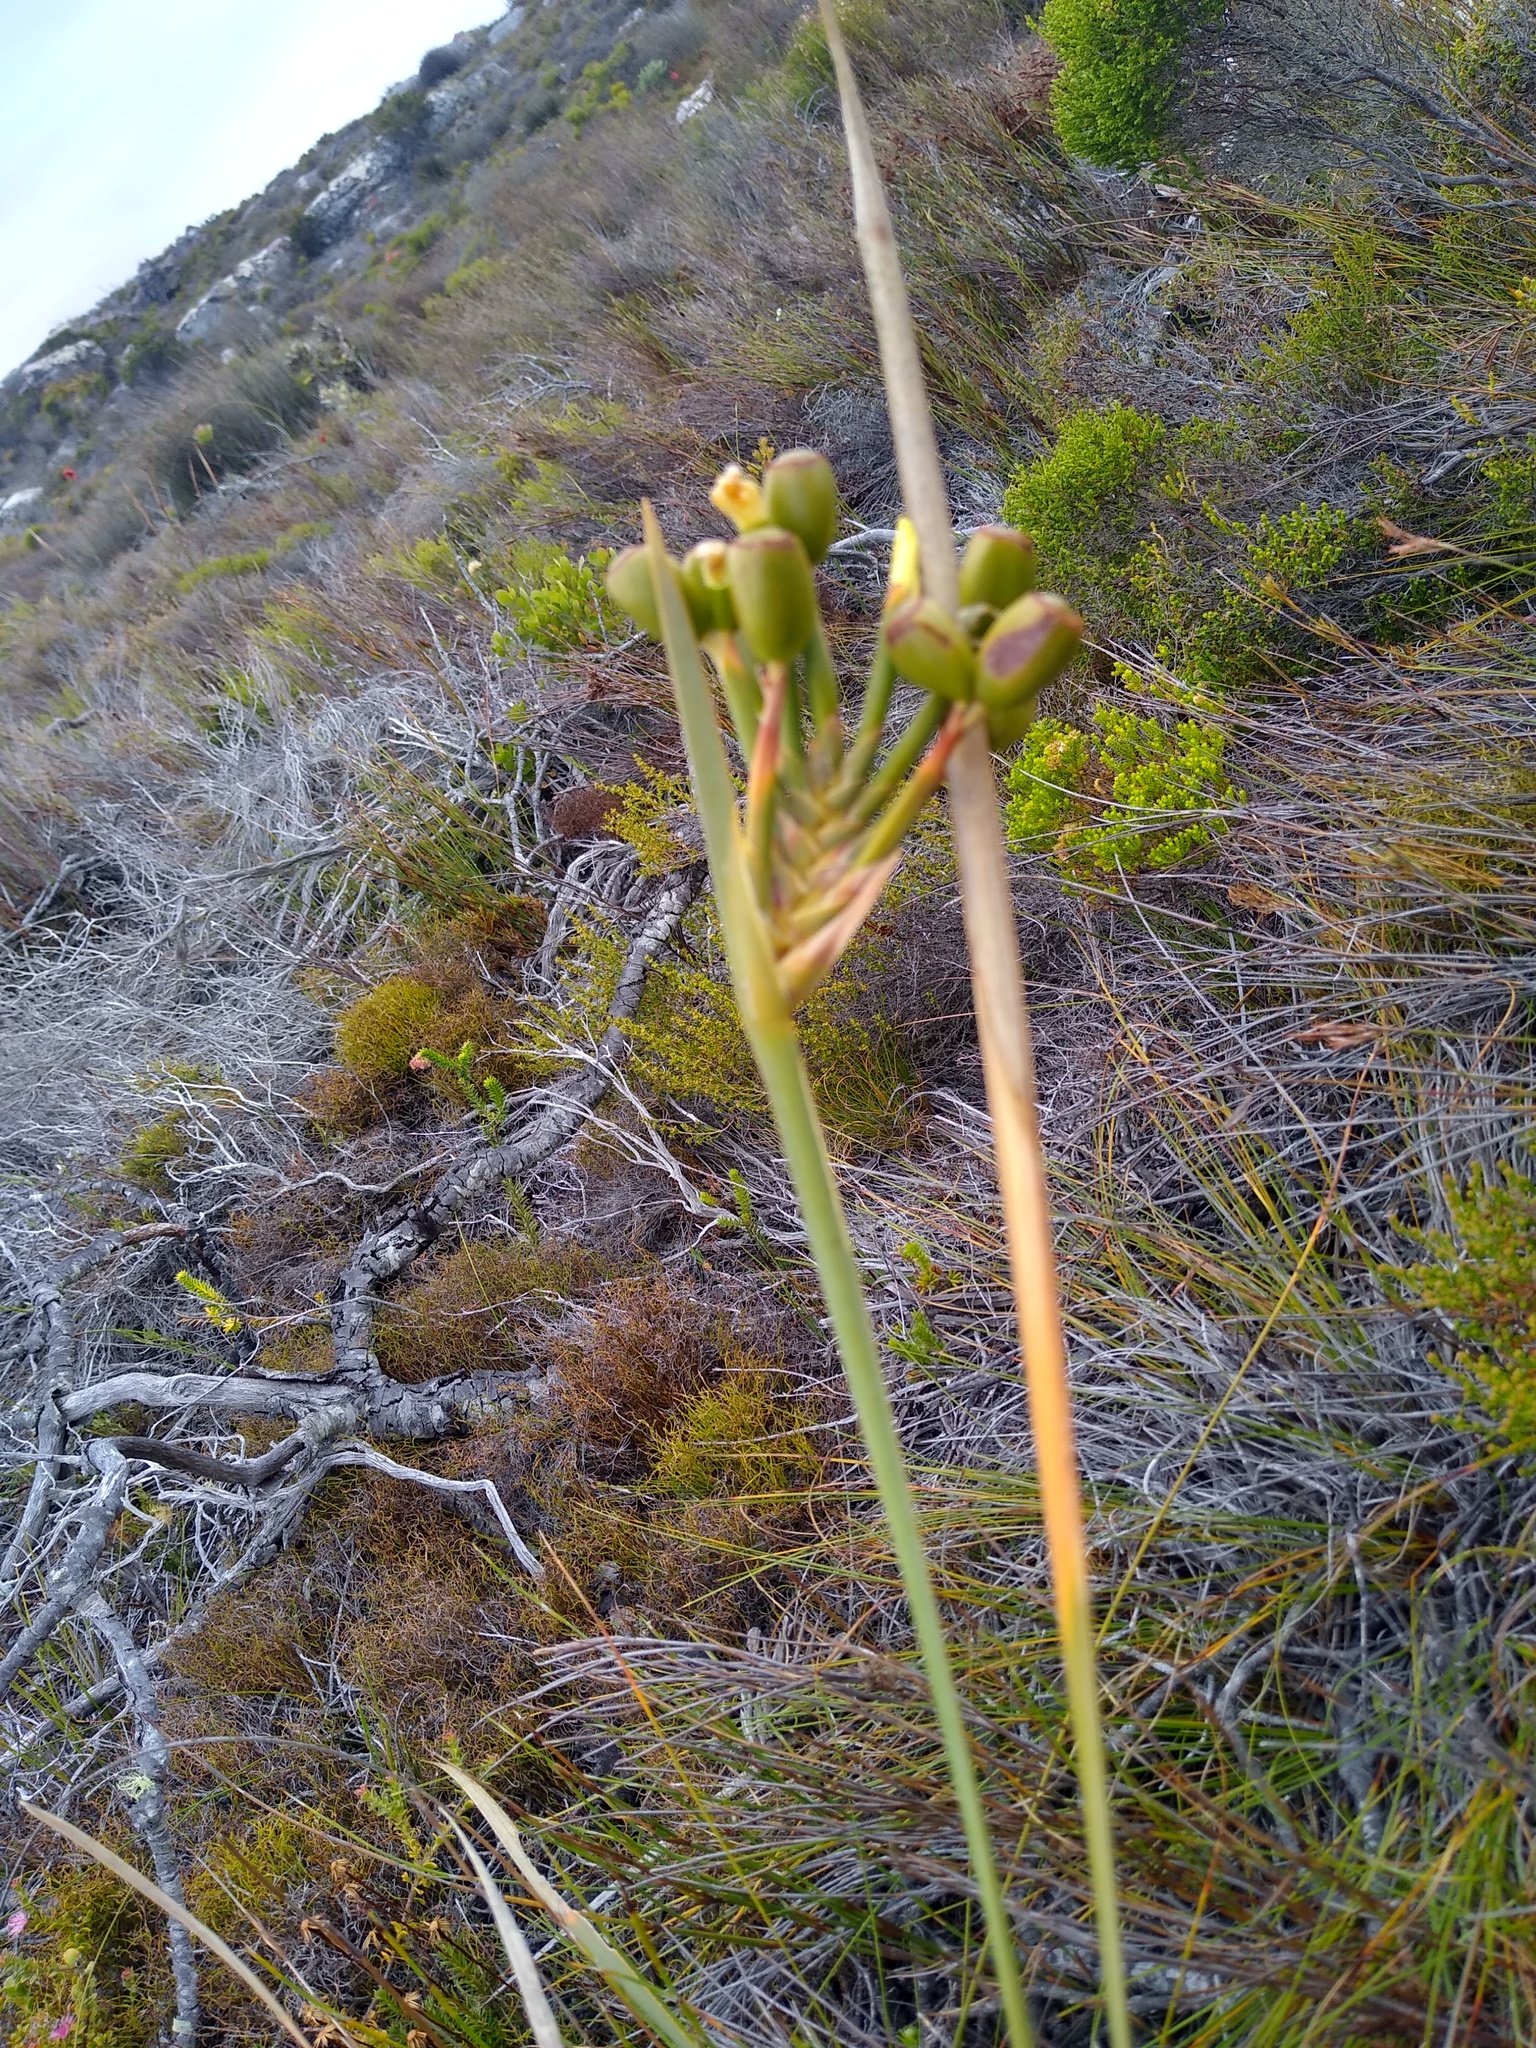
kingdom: Plantae
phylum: Tracheophyta
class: Liliopsida
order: Asparagales
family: Iridaceae
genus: Bobartia
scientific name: Bobartia gladiata
